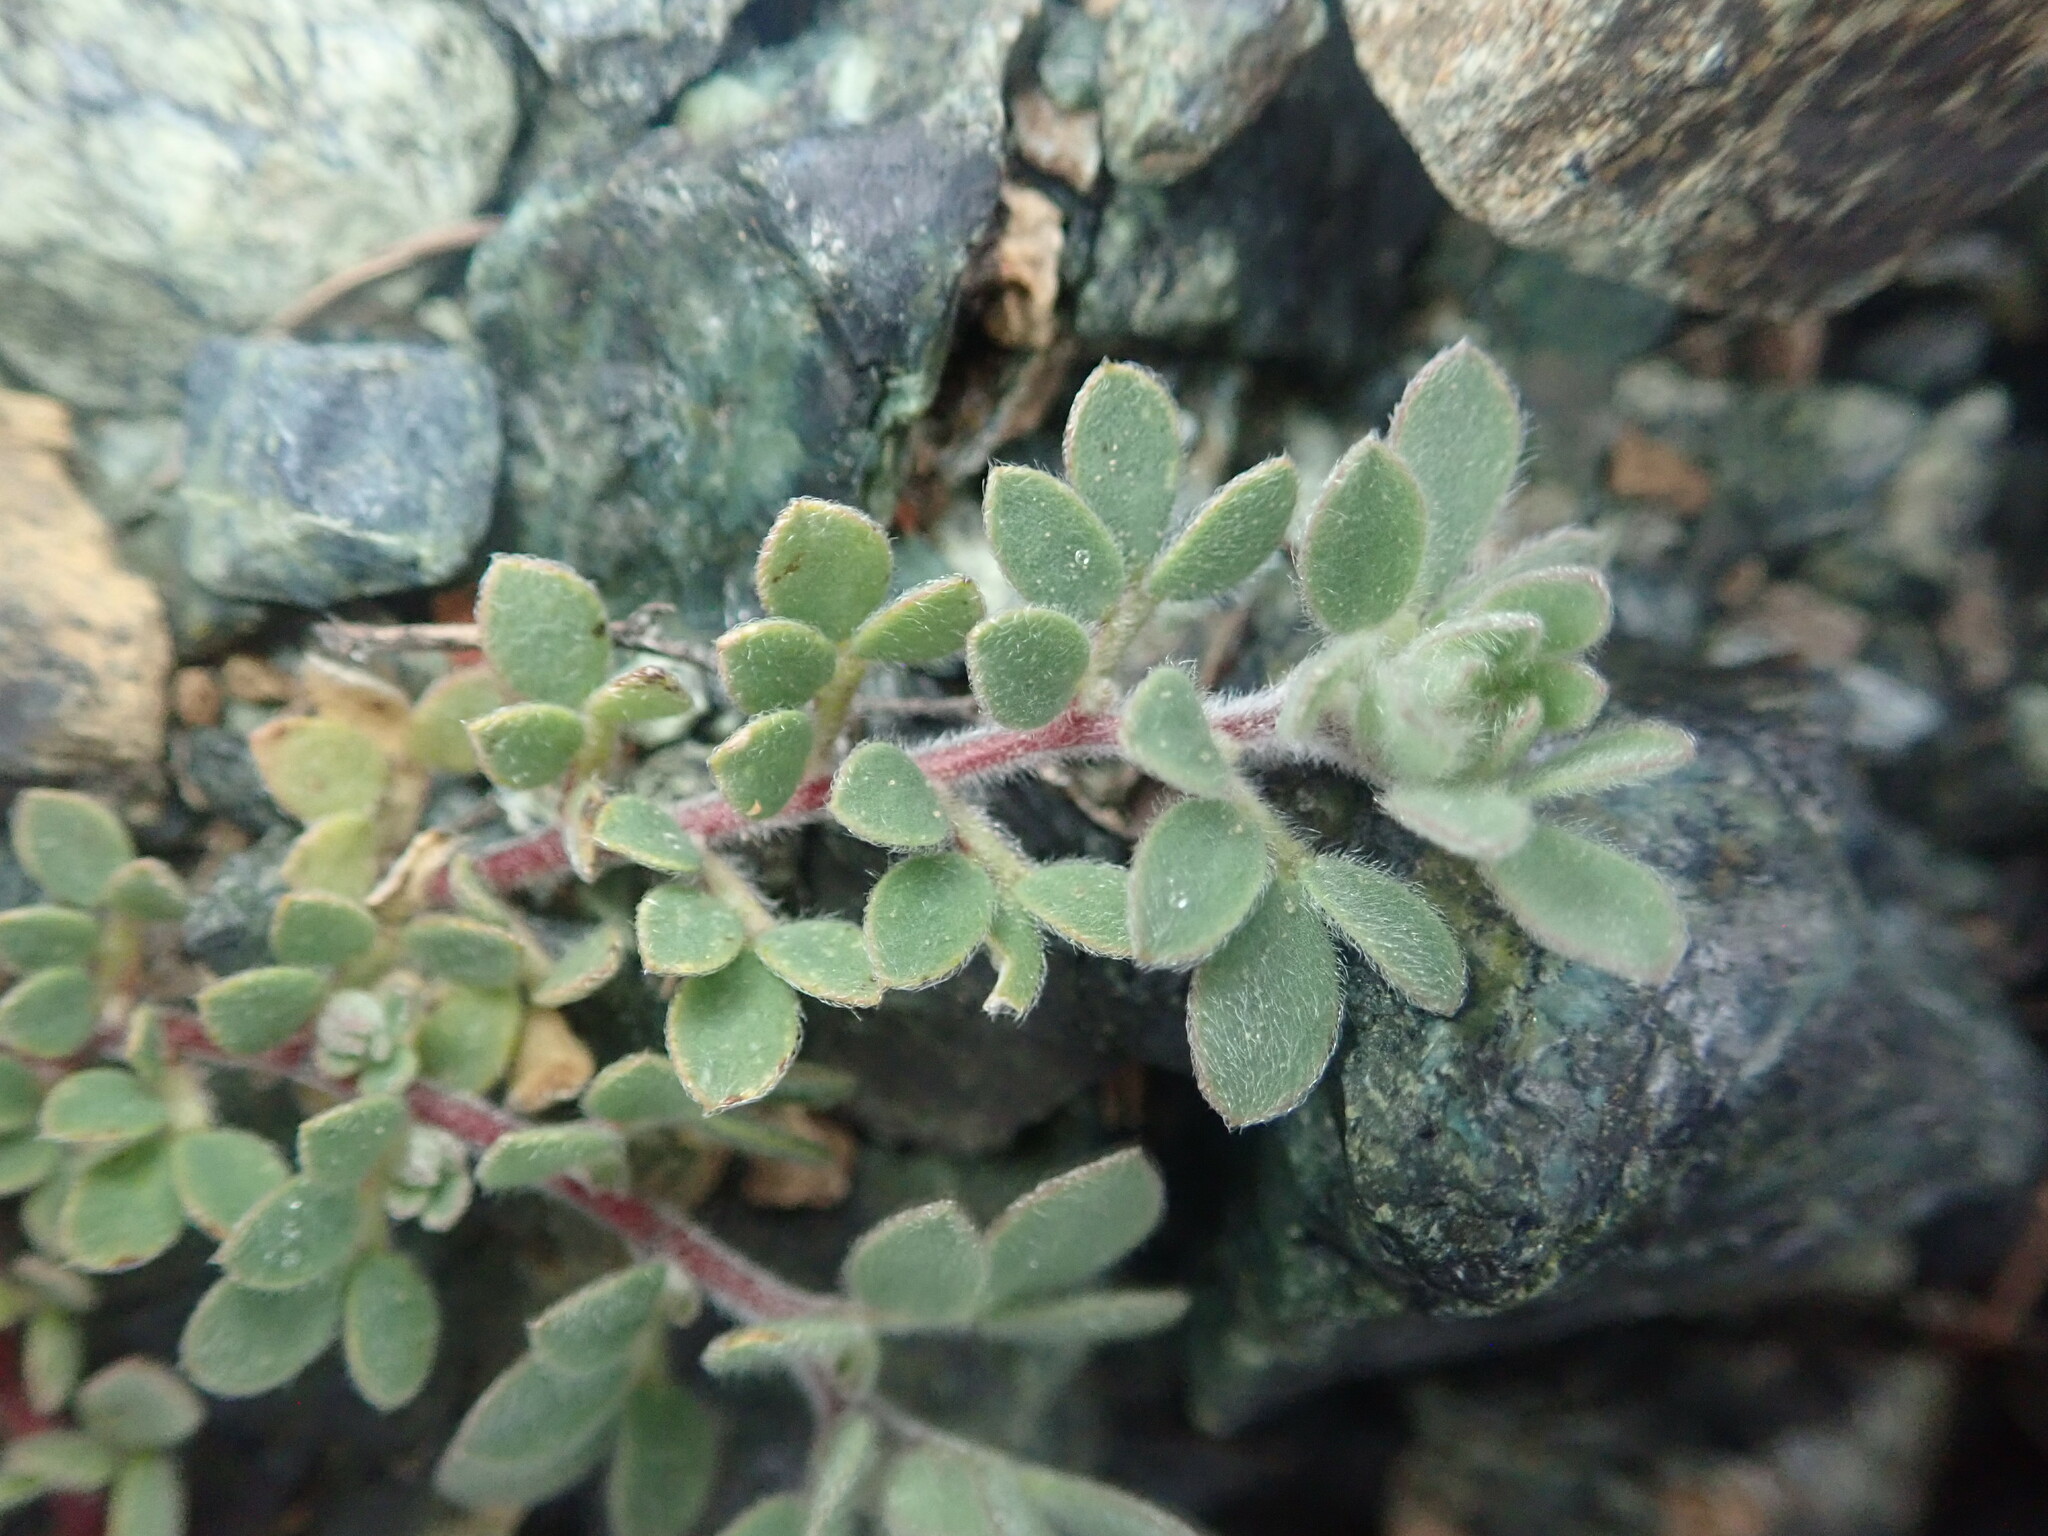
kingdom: Plantae
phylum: Tracheophyta
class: Magnoliopsida
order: Fabales
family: Fabaceae
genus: Acmispon
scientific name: Acmispon brachycarpus
